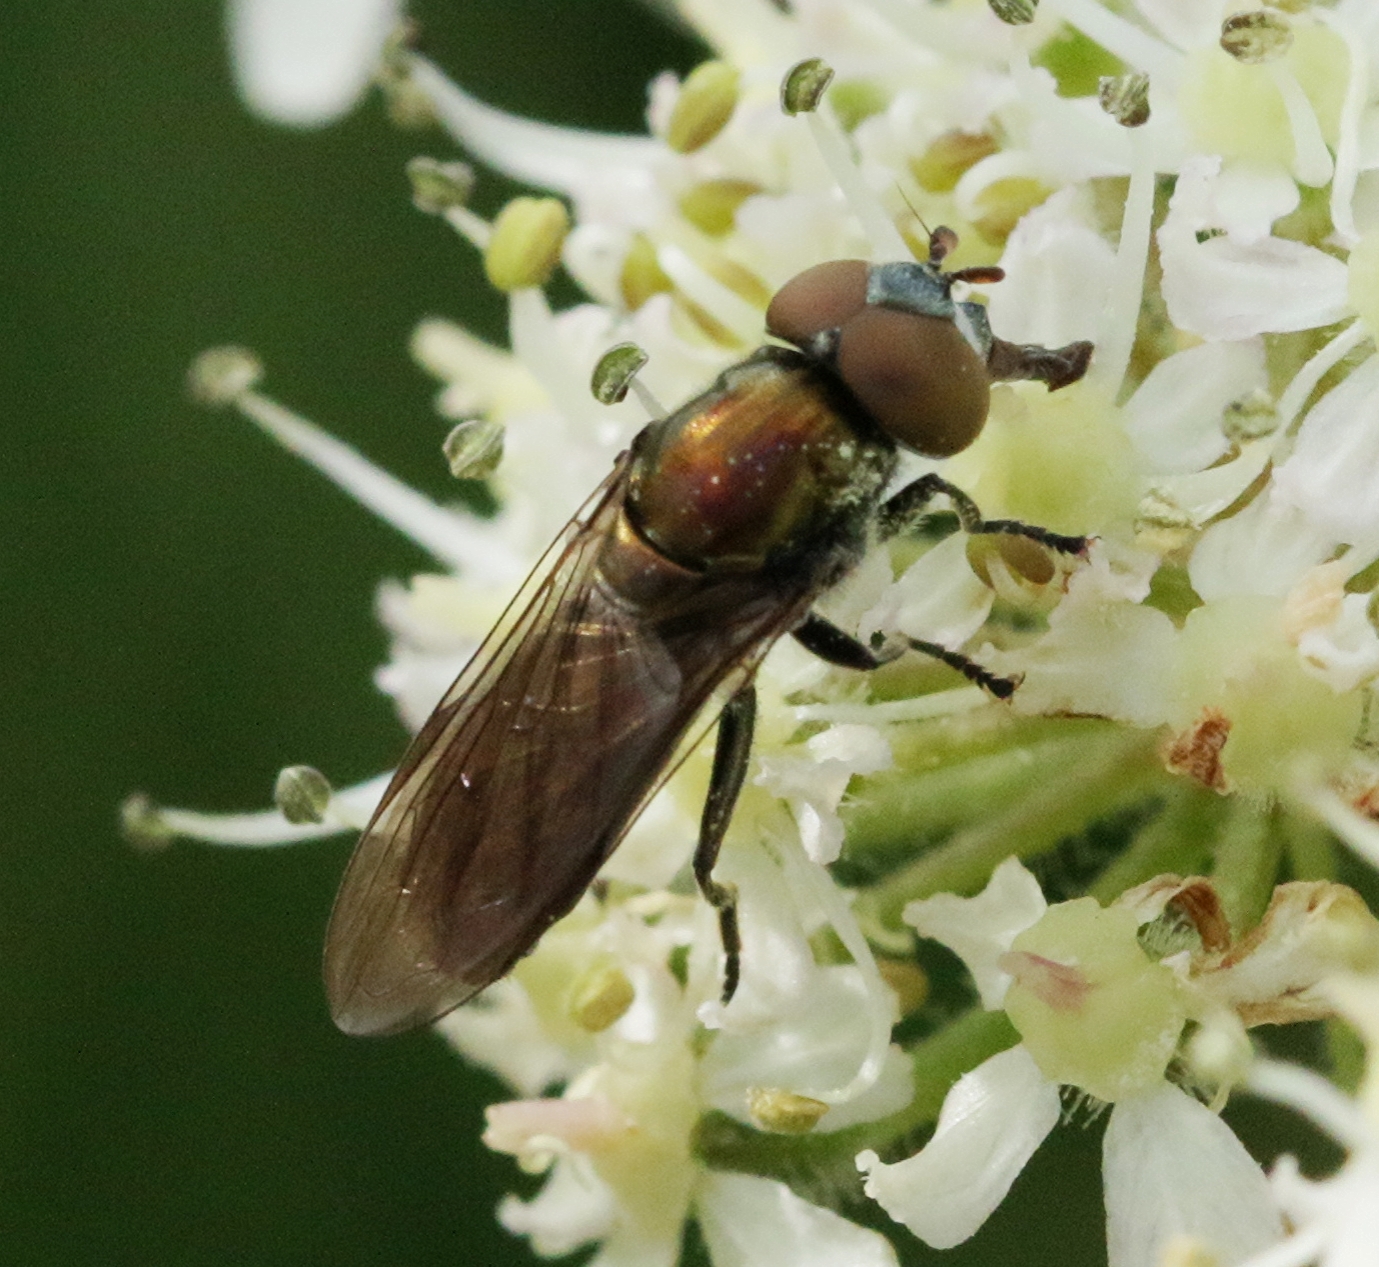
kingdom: Animalia
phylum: Arthropoda
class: Insecta
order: Diptera
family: Syrphidae
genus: Orthonevra
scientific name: Orthonevra splendens
